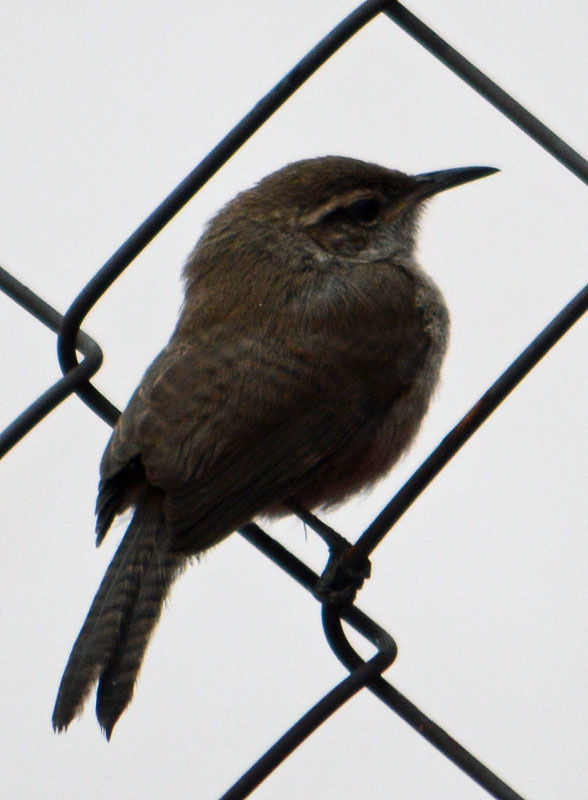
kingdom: Animalia
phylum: Chordata
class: Aves
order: Passeriformes
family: Troglodytidae
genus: Thryomanes
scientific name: Thryomanes bewickii
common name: Bewick's wren
